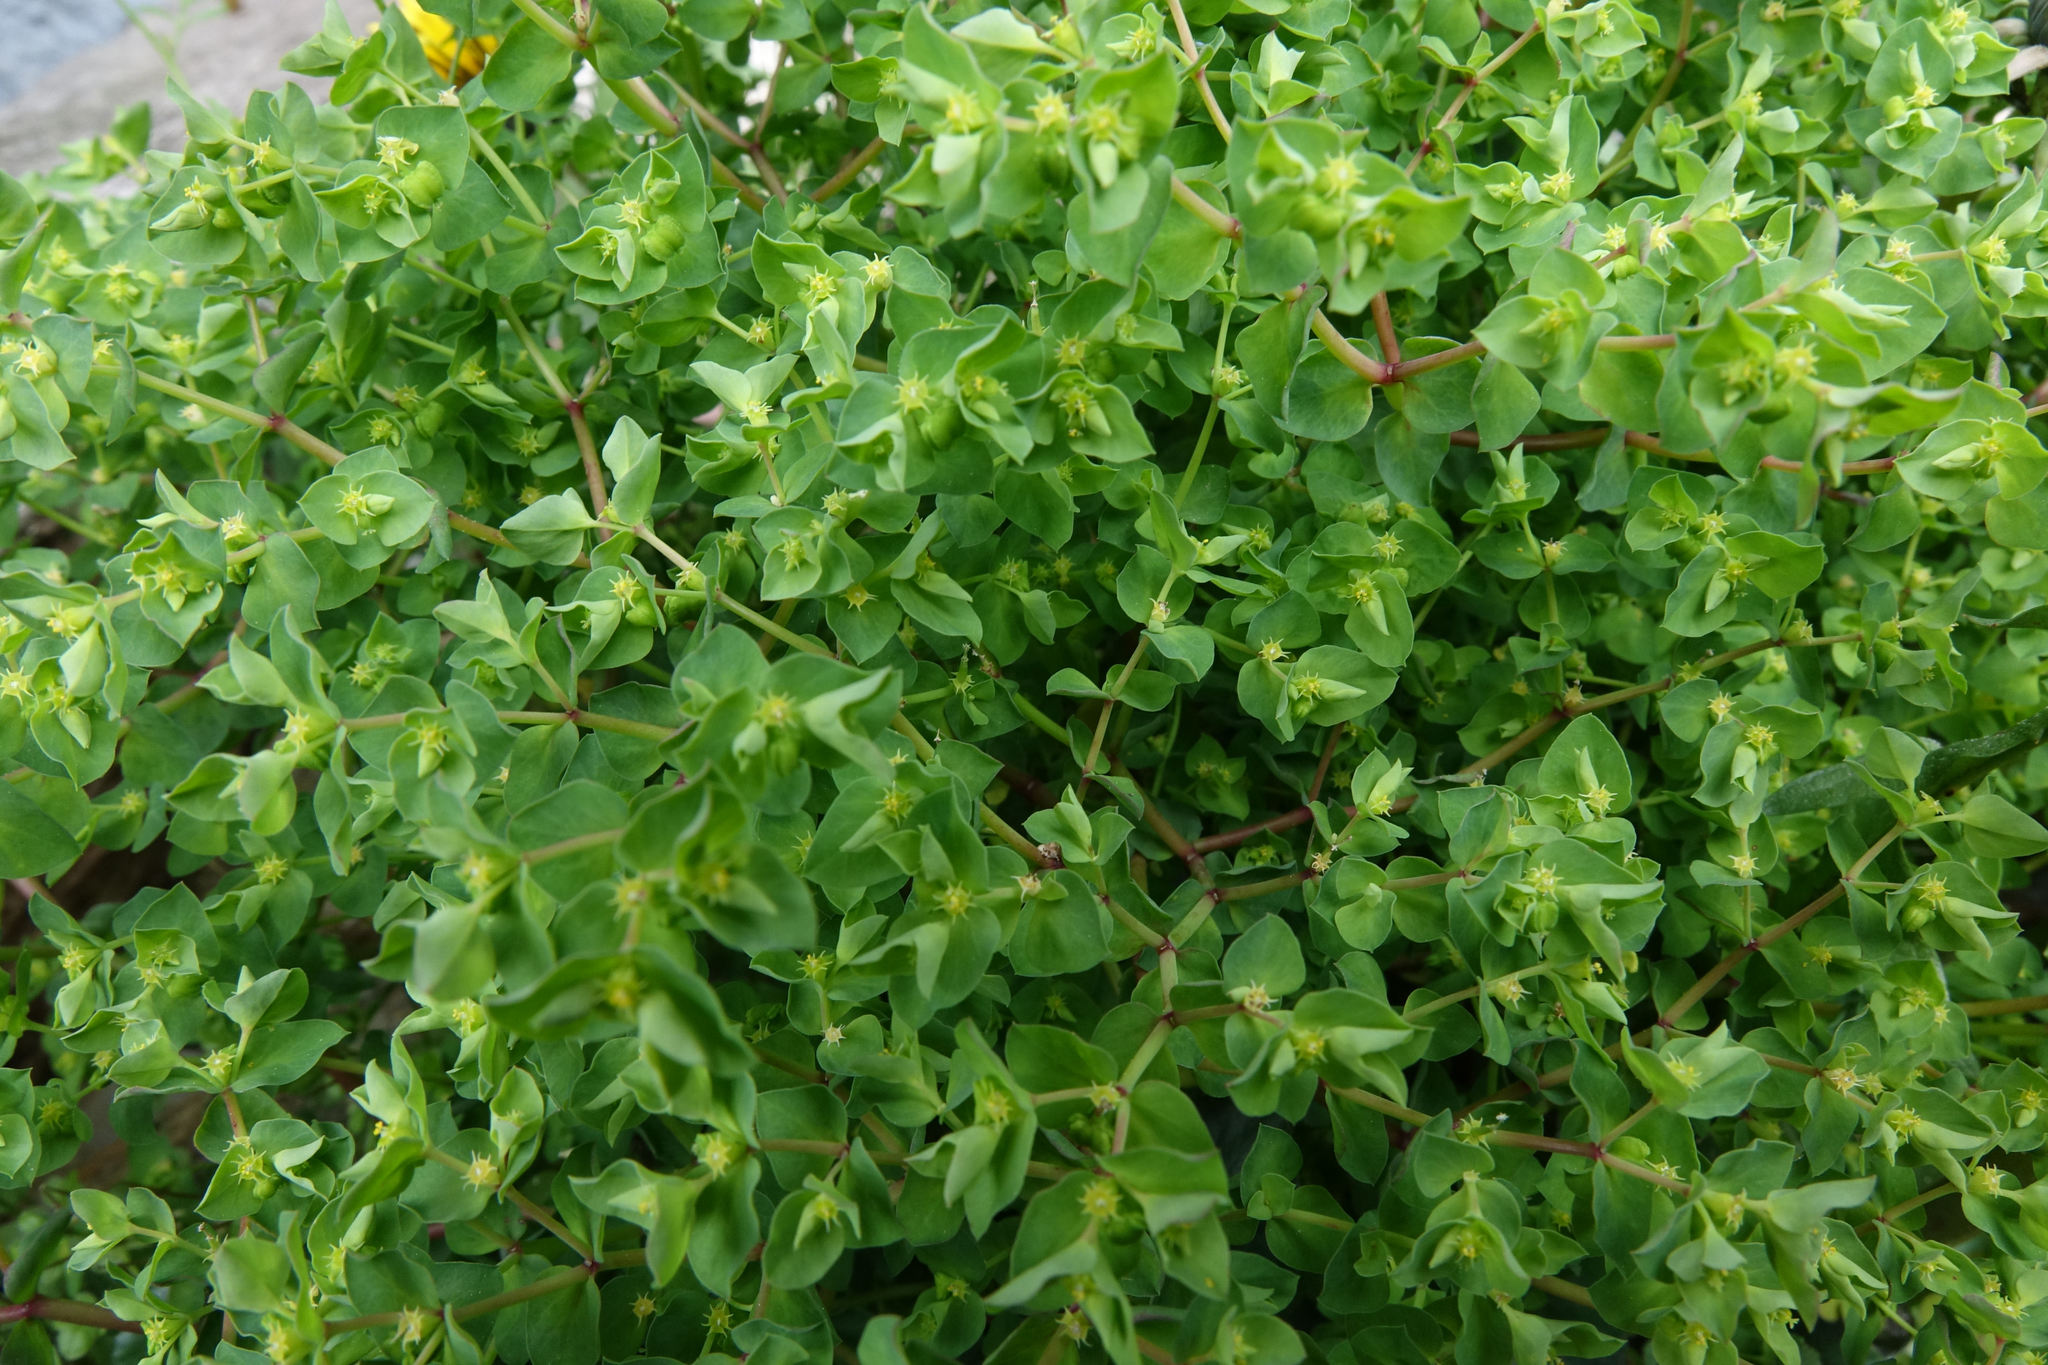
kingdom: Plantae
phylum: Tracheophyta
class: Magnoliopsida
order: Malpighiales
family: Euphorbiaceae
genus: Euphorbia
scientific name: Euphorbia peplus
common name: Petty spurge
